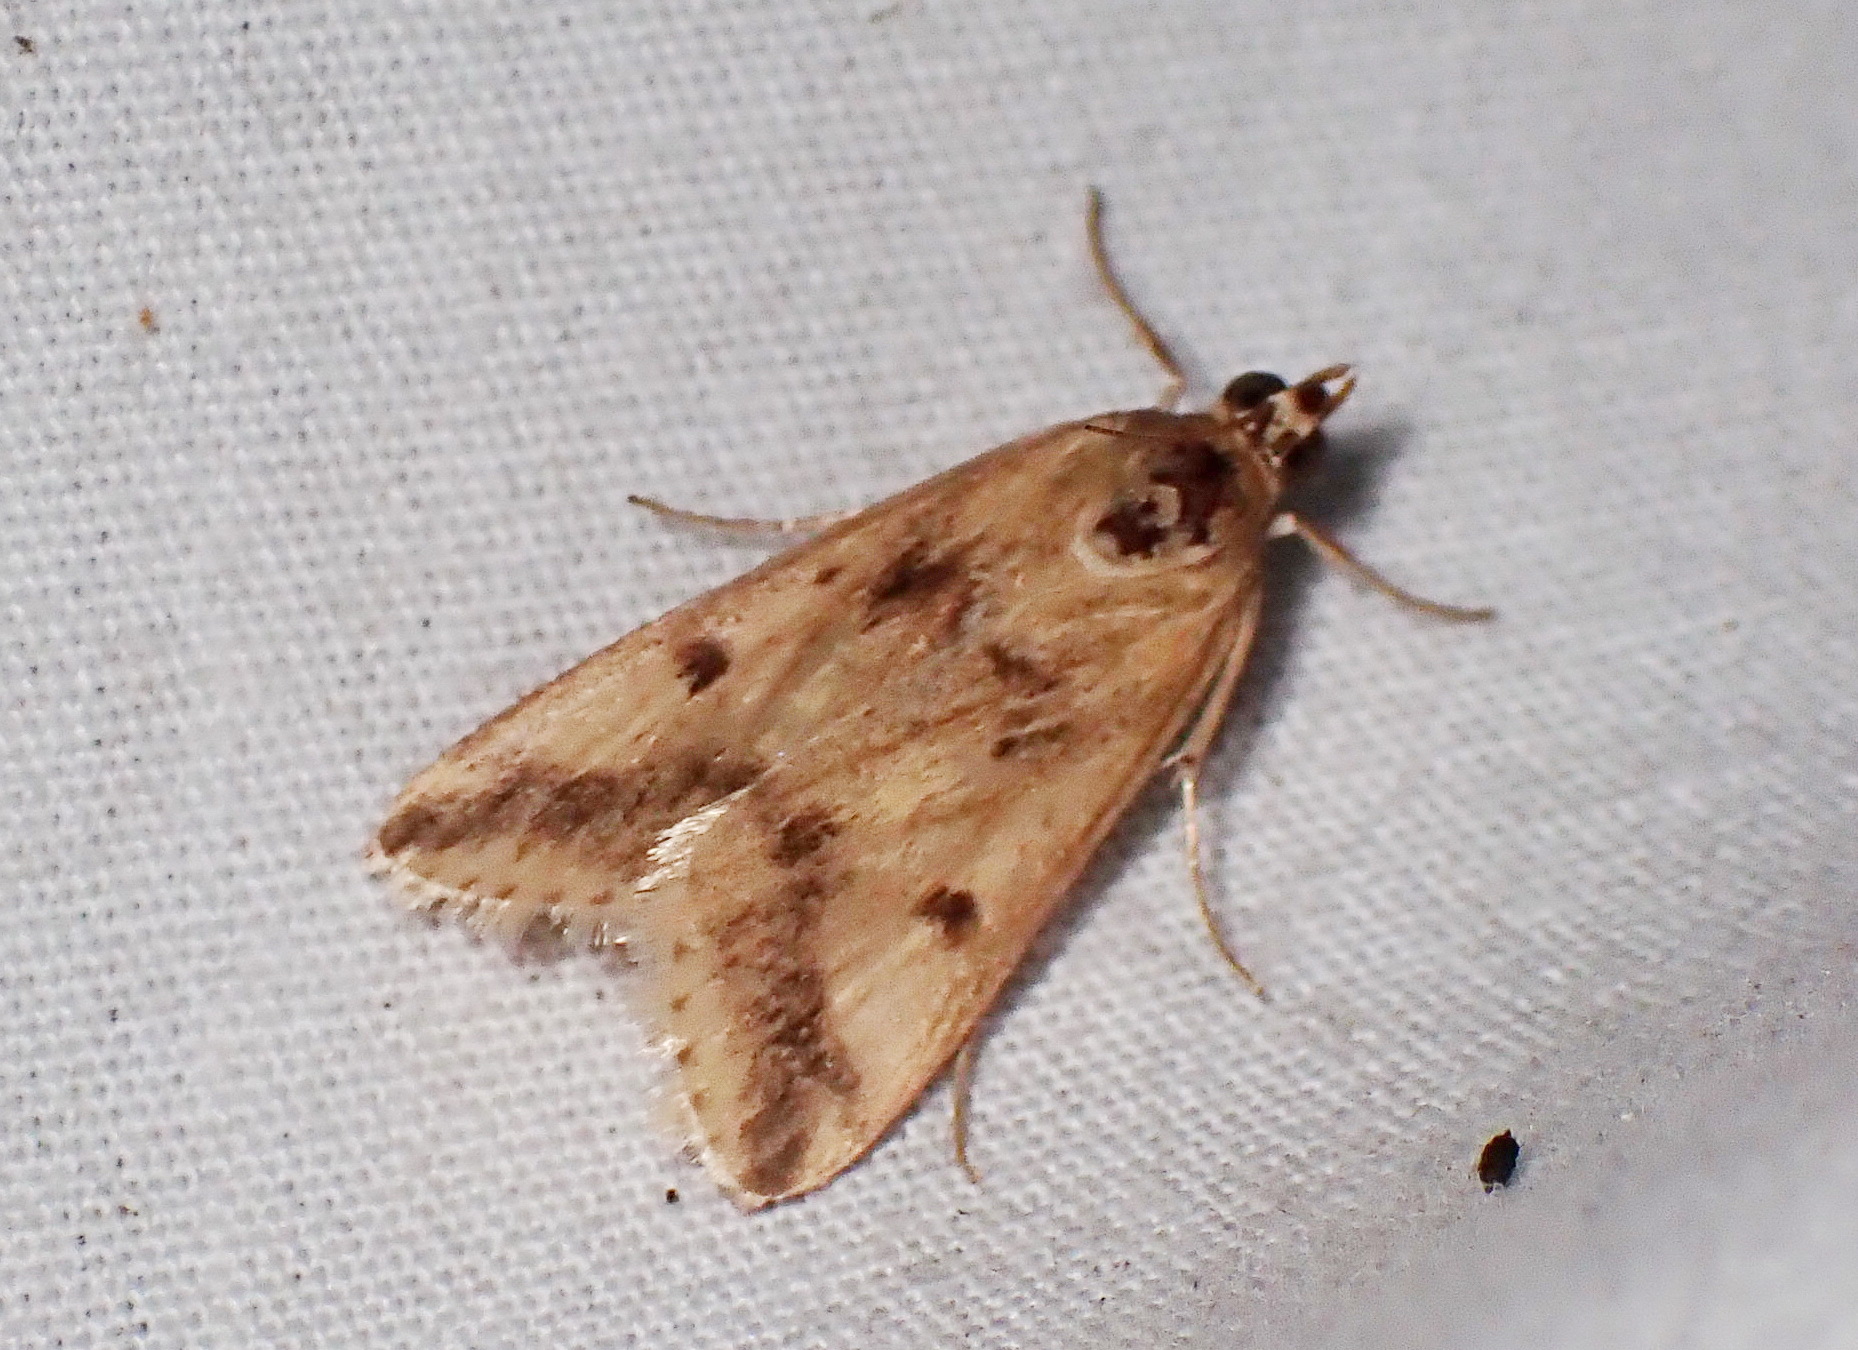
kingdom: Animalia
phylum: Arthropoda
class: Insecta
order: Lepidoptera
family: Crambidae
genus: Achyra
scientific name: Achyra bifidalis
